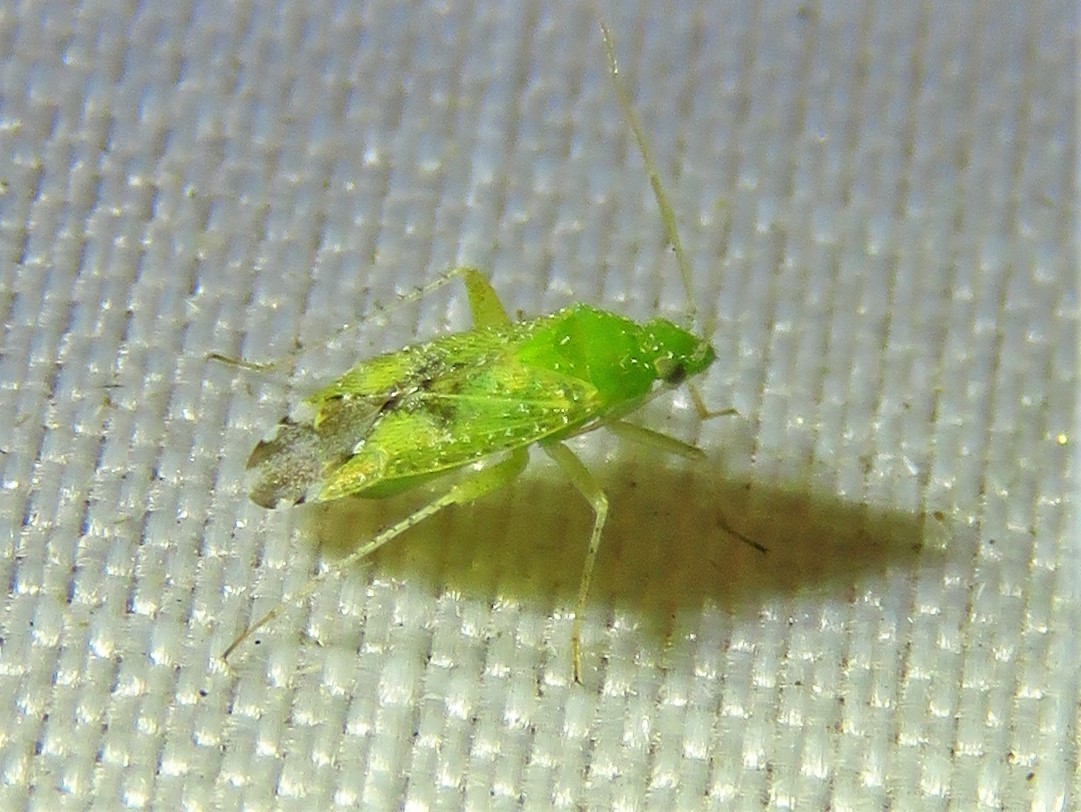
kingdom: Animalia
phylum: Arthropoda
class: Insecta
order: Hemiptera
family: Miridae
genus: Keltonia
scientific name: Keltonia tuckeri
